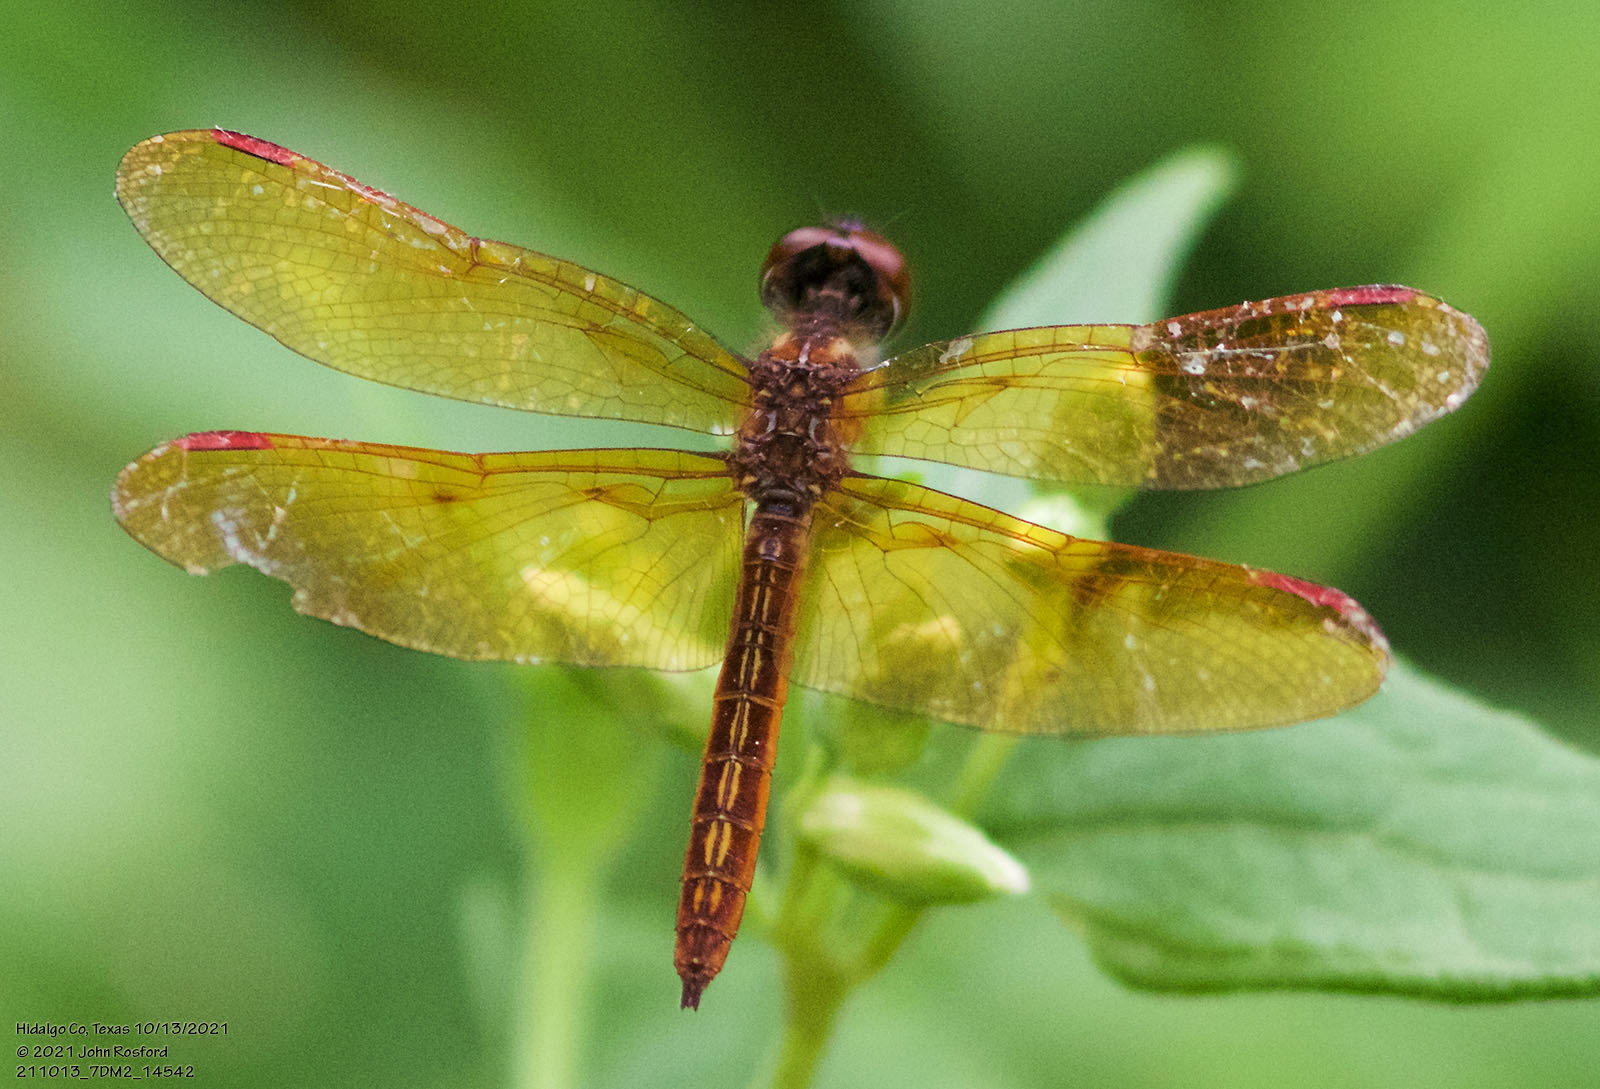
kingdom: Animalia
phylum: Arthropoda
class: Insecta
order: Odonata
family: Libellulidae
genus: Perithemis
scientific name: Perithemis domitia
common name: Slough amberwing
